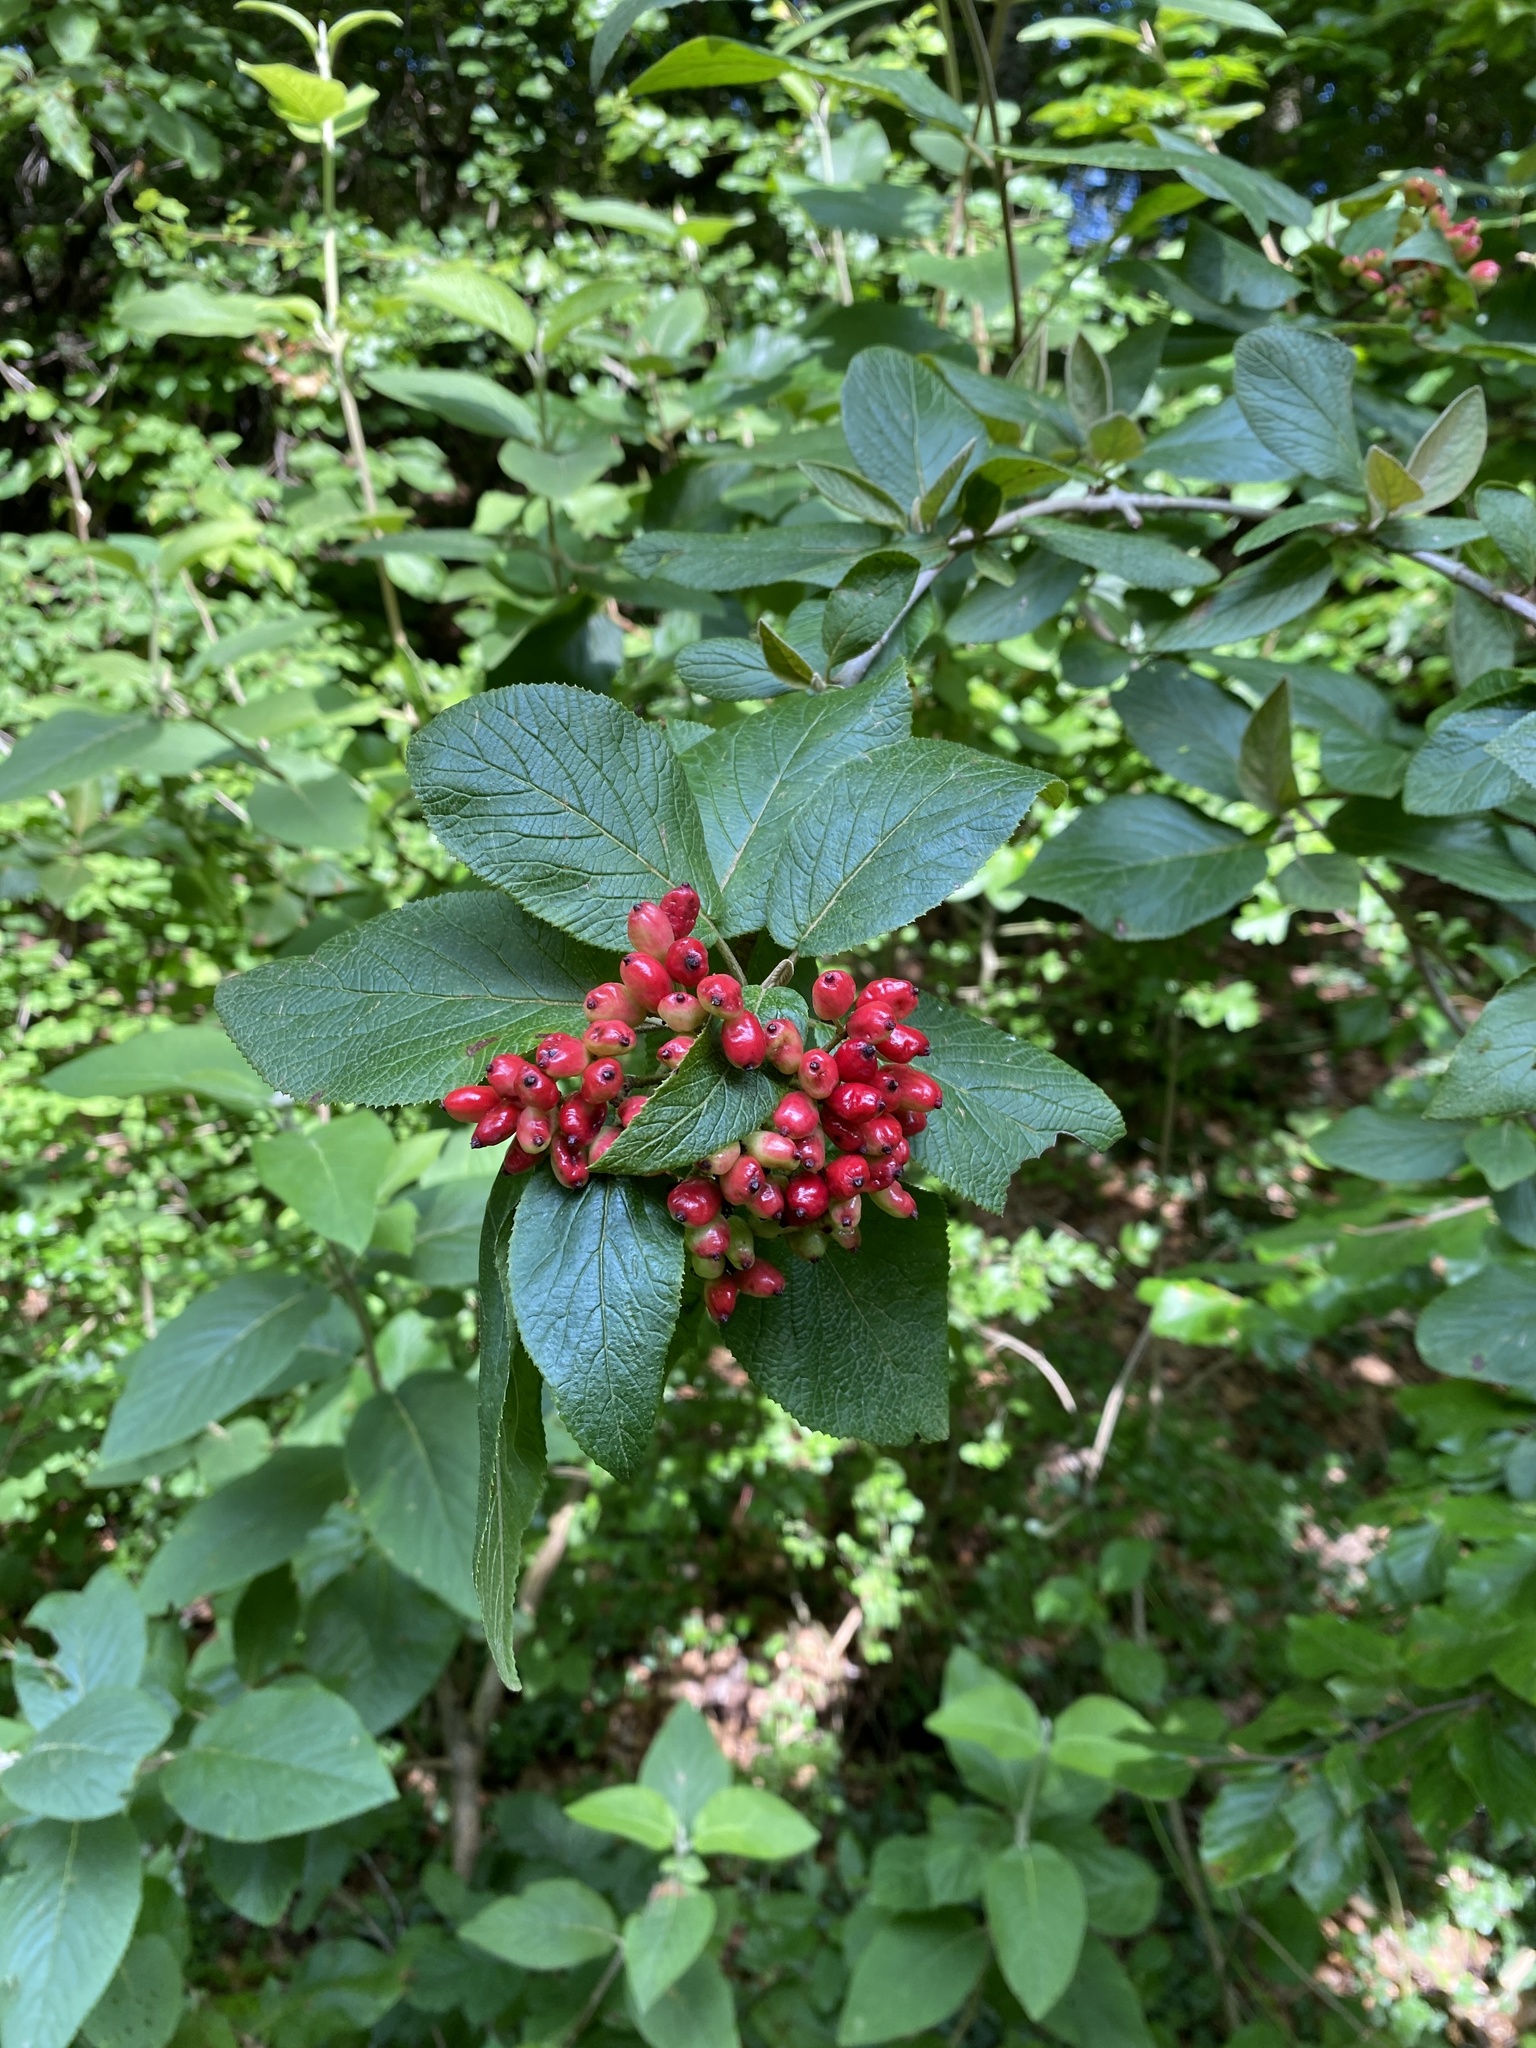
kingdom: Plantae
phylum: Tracheophyta
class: Magnoliopsida
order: Dipsacales
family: Viburnaceae
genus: Viburnum
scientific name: Viburnum lantana
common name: Wayfaring tree
